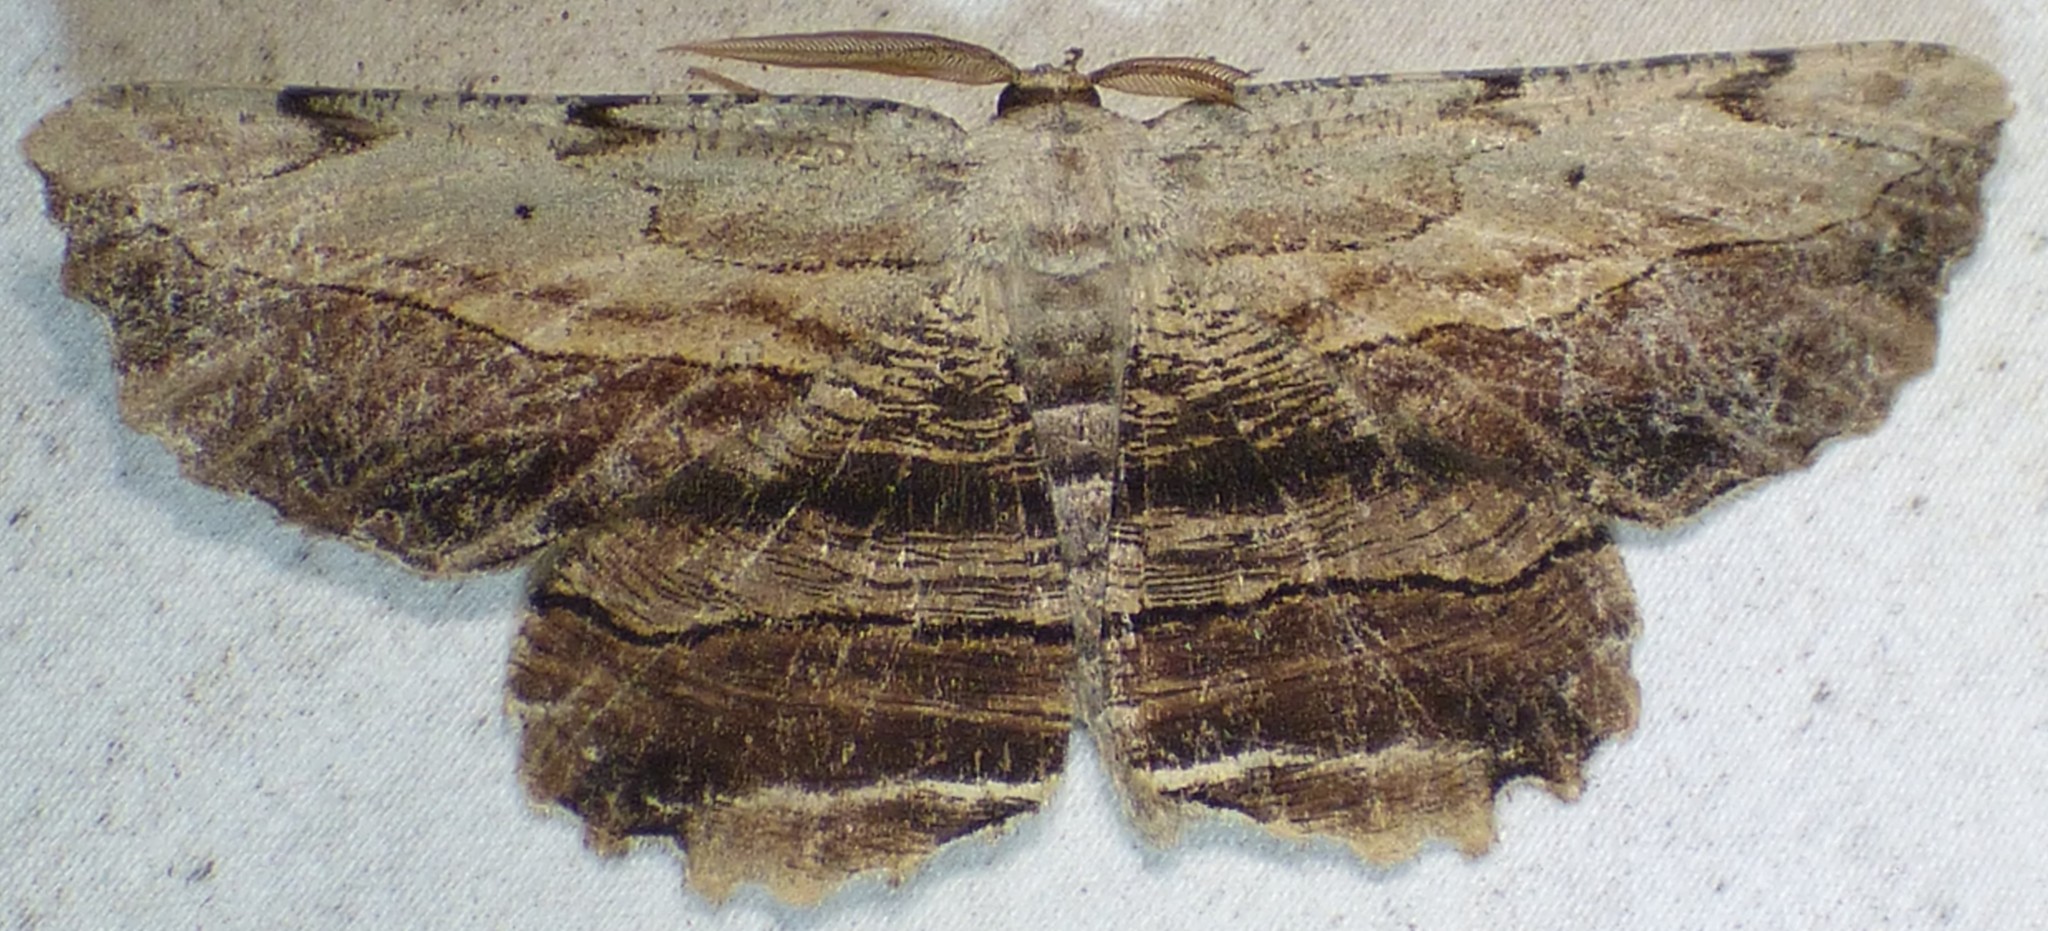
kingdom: Animalia
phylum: Arthropoda
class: Insecta
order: Lepidoptera
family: Geometridae
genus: Lytrosis
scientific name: Lytrosis unitaria
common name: Common lytrosis
